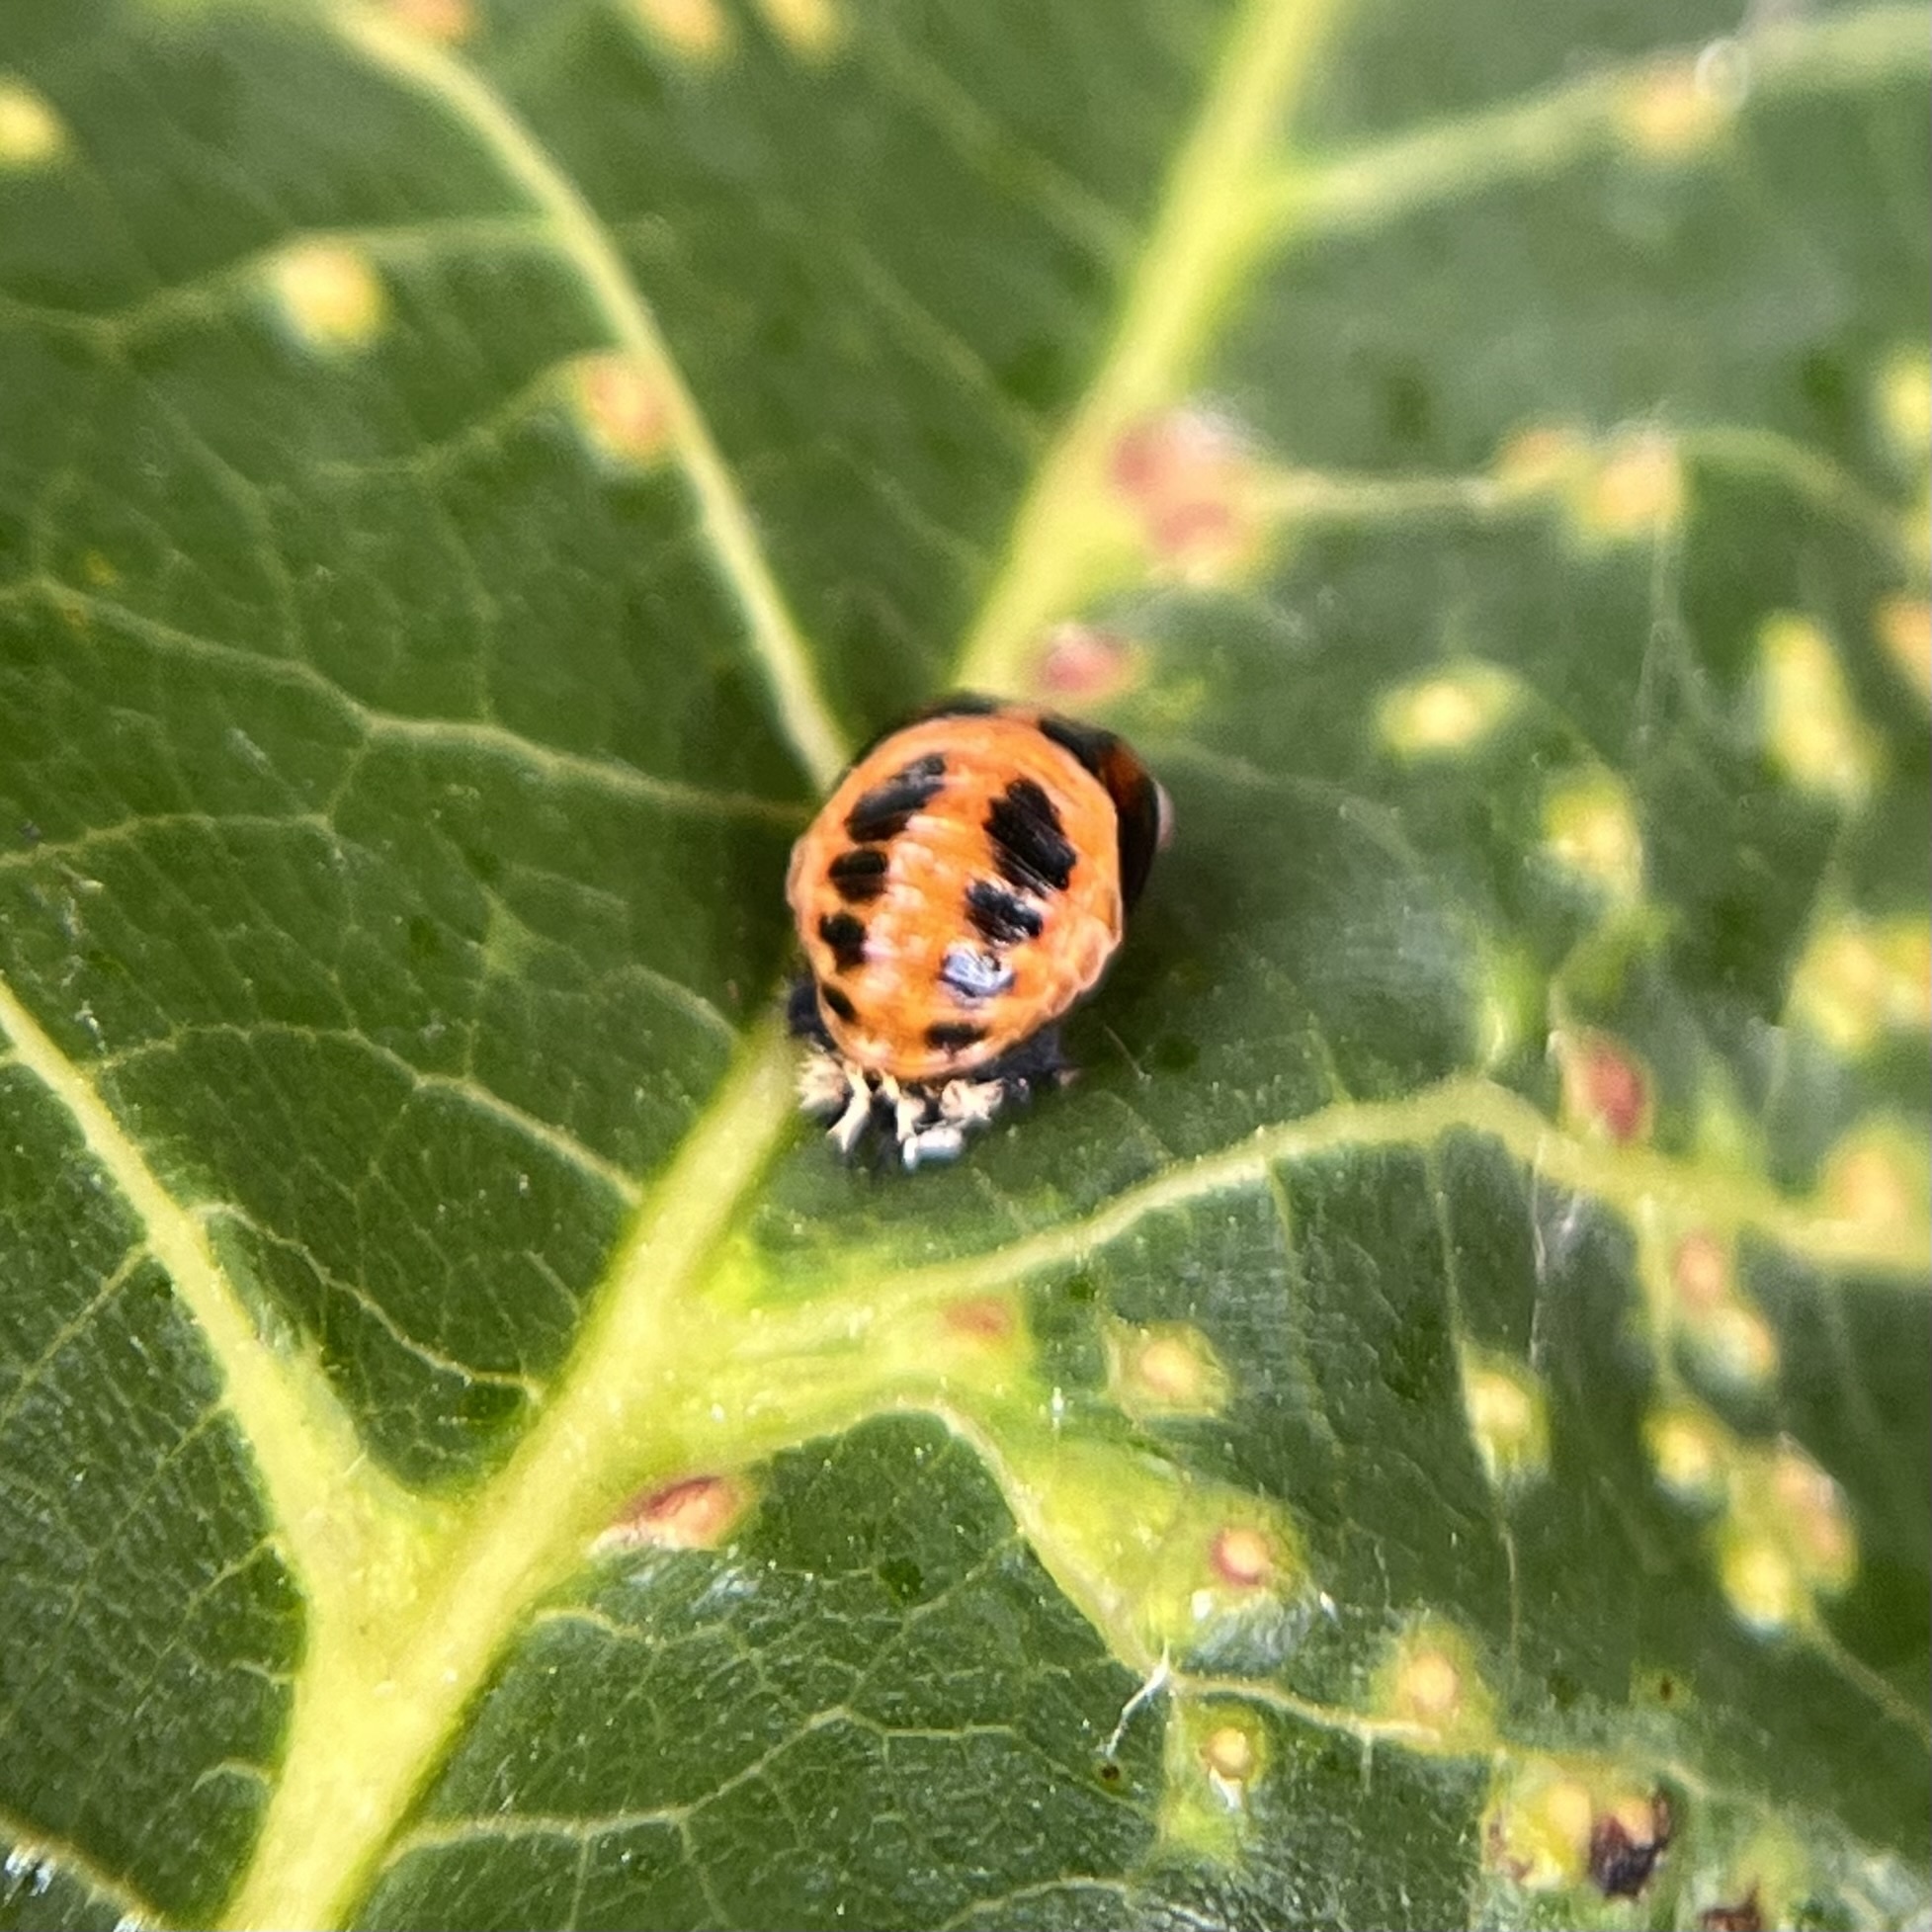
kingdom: Animalia
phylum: Arthropoda
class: Insecta
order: Coleoptera
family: Coccinellidae
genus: Harmonia
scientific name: Harmonia axyridis
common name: Harlequin ladybird
